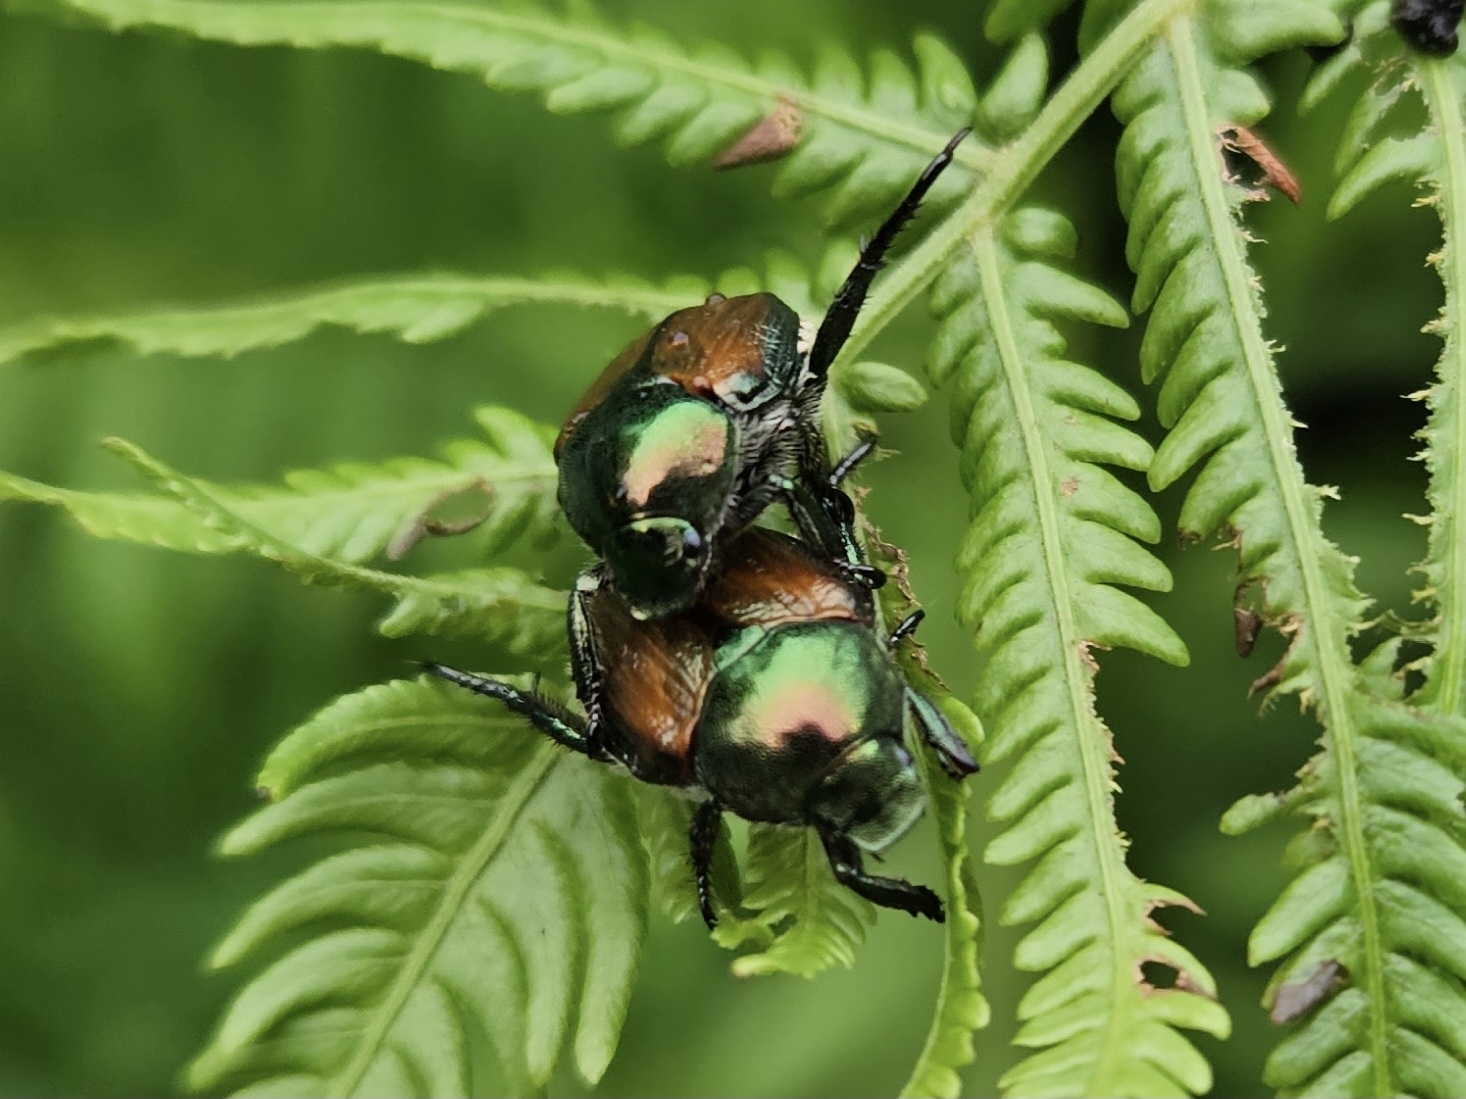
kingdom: Animalia
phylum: Arthropoda
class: Insecta
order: Coleoptera
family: Scarabaeidae
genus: Popillia
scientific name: Popillia japonica
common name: Japanese beetle
